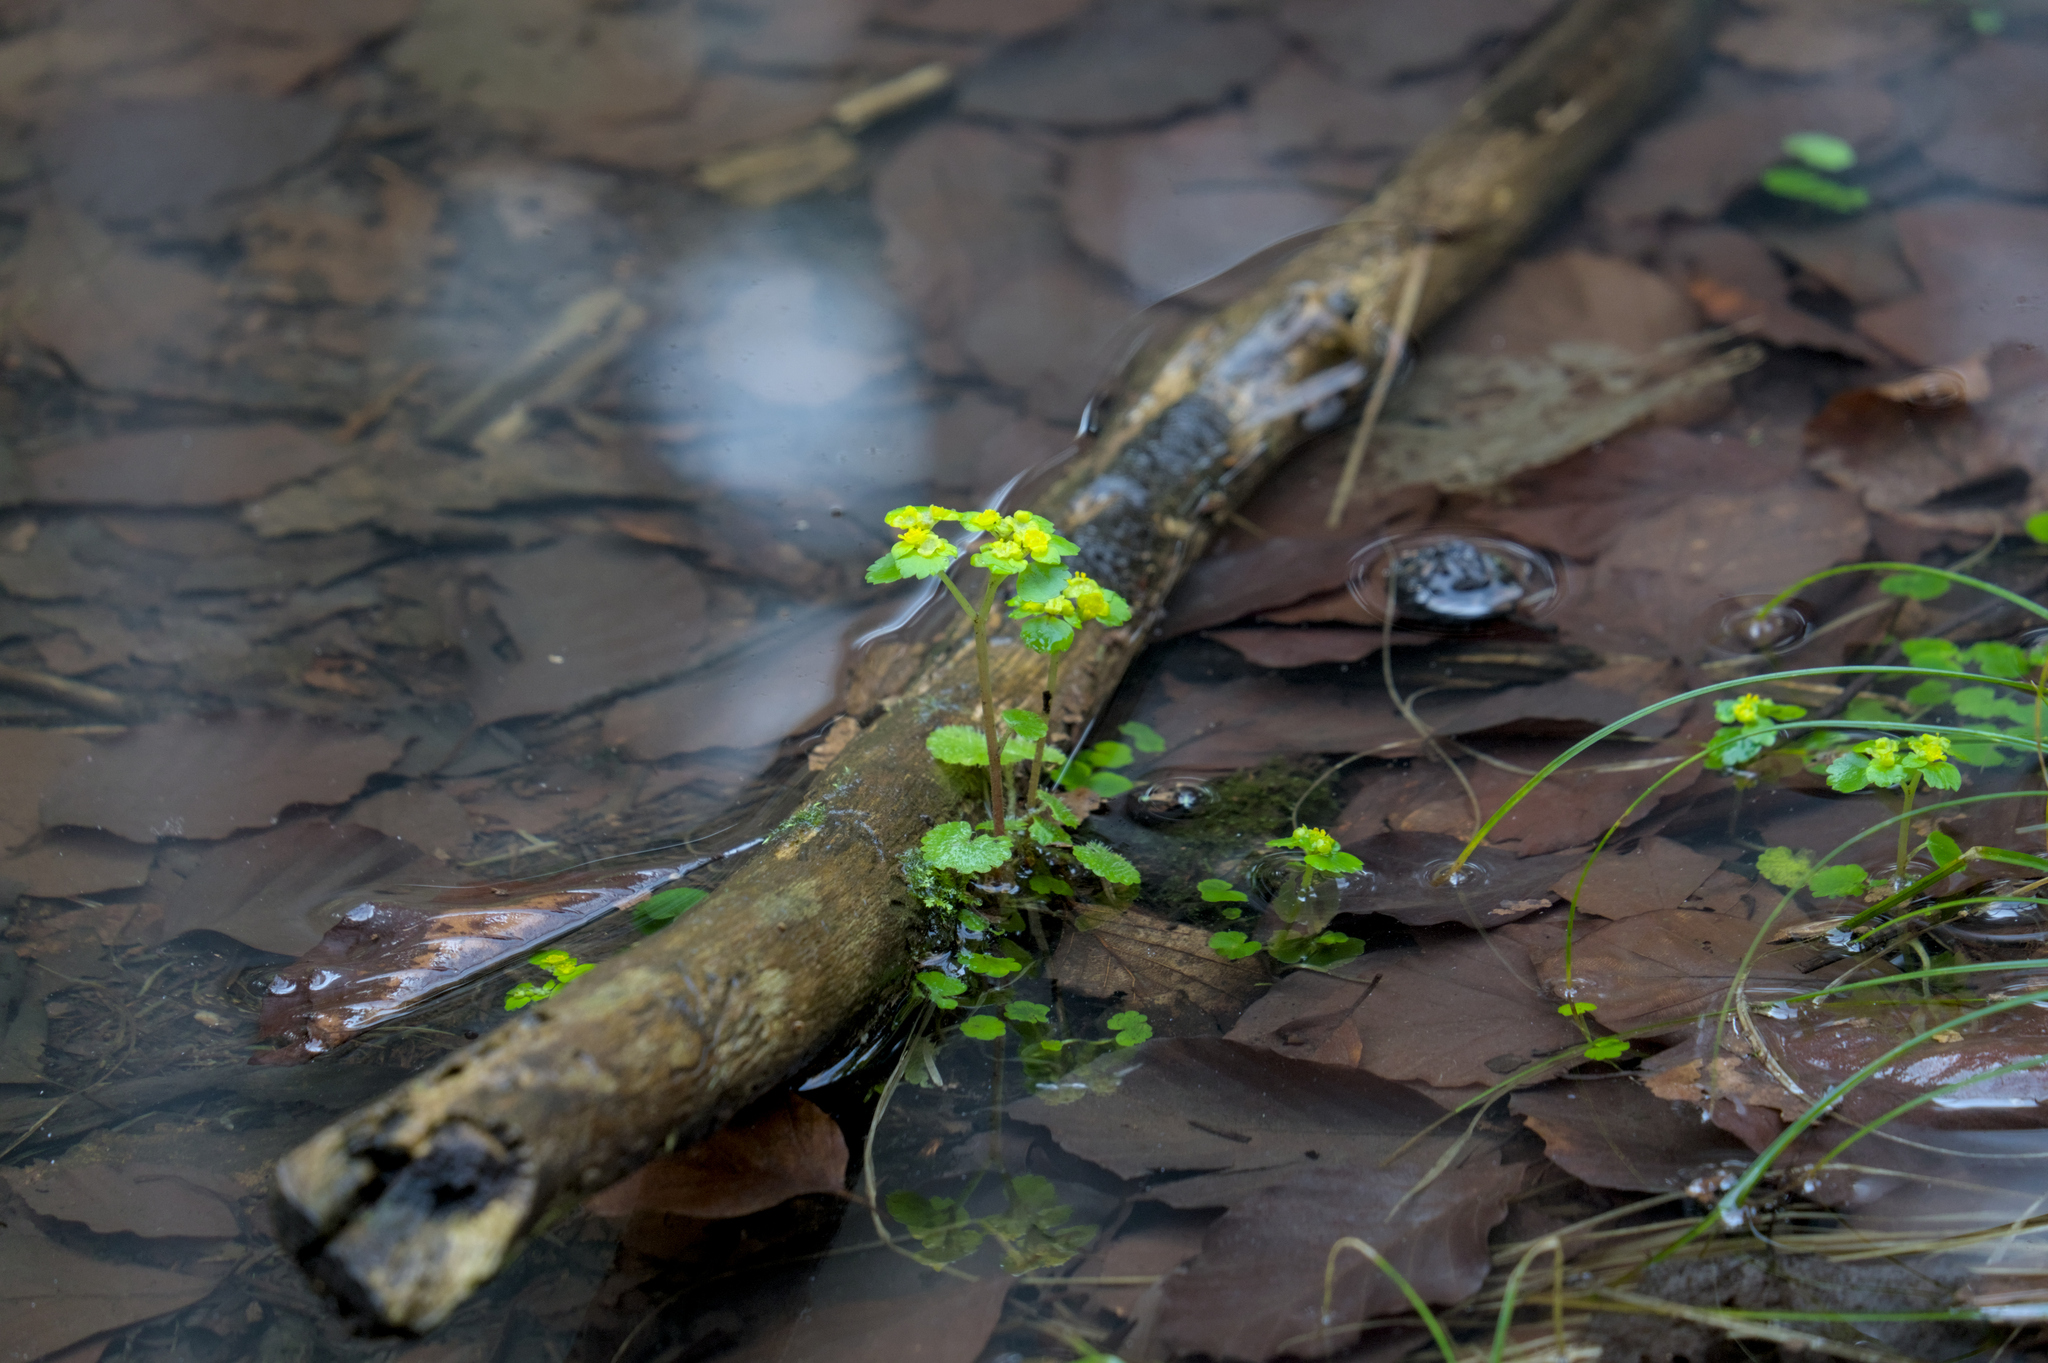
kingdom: Plantae
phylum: Tracheophyta
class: Magnoliopsida
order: Saxifragales
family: Saxifragaceae
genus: Chrysosplenium
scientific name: Chrysosplenium alternifolium
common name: Alternate-leaved golden-saxifrage
